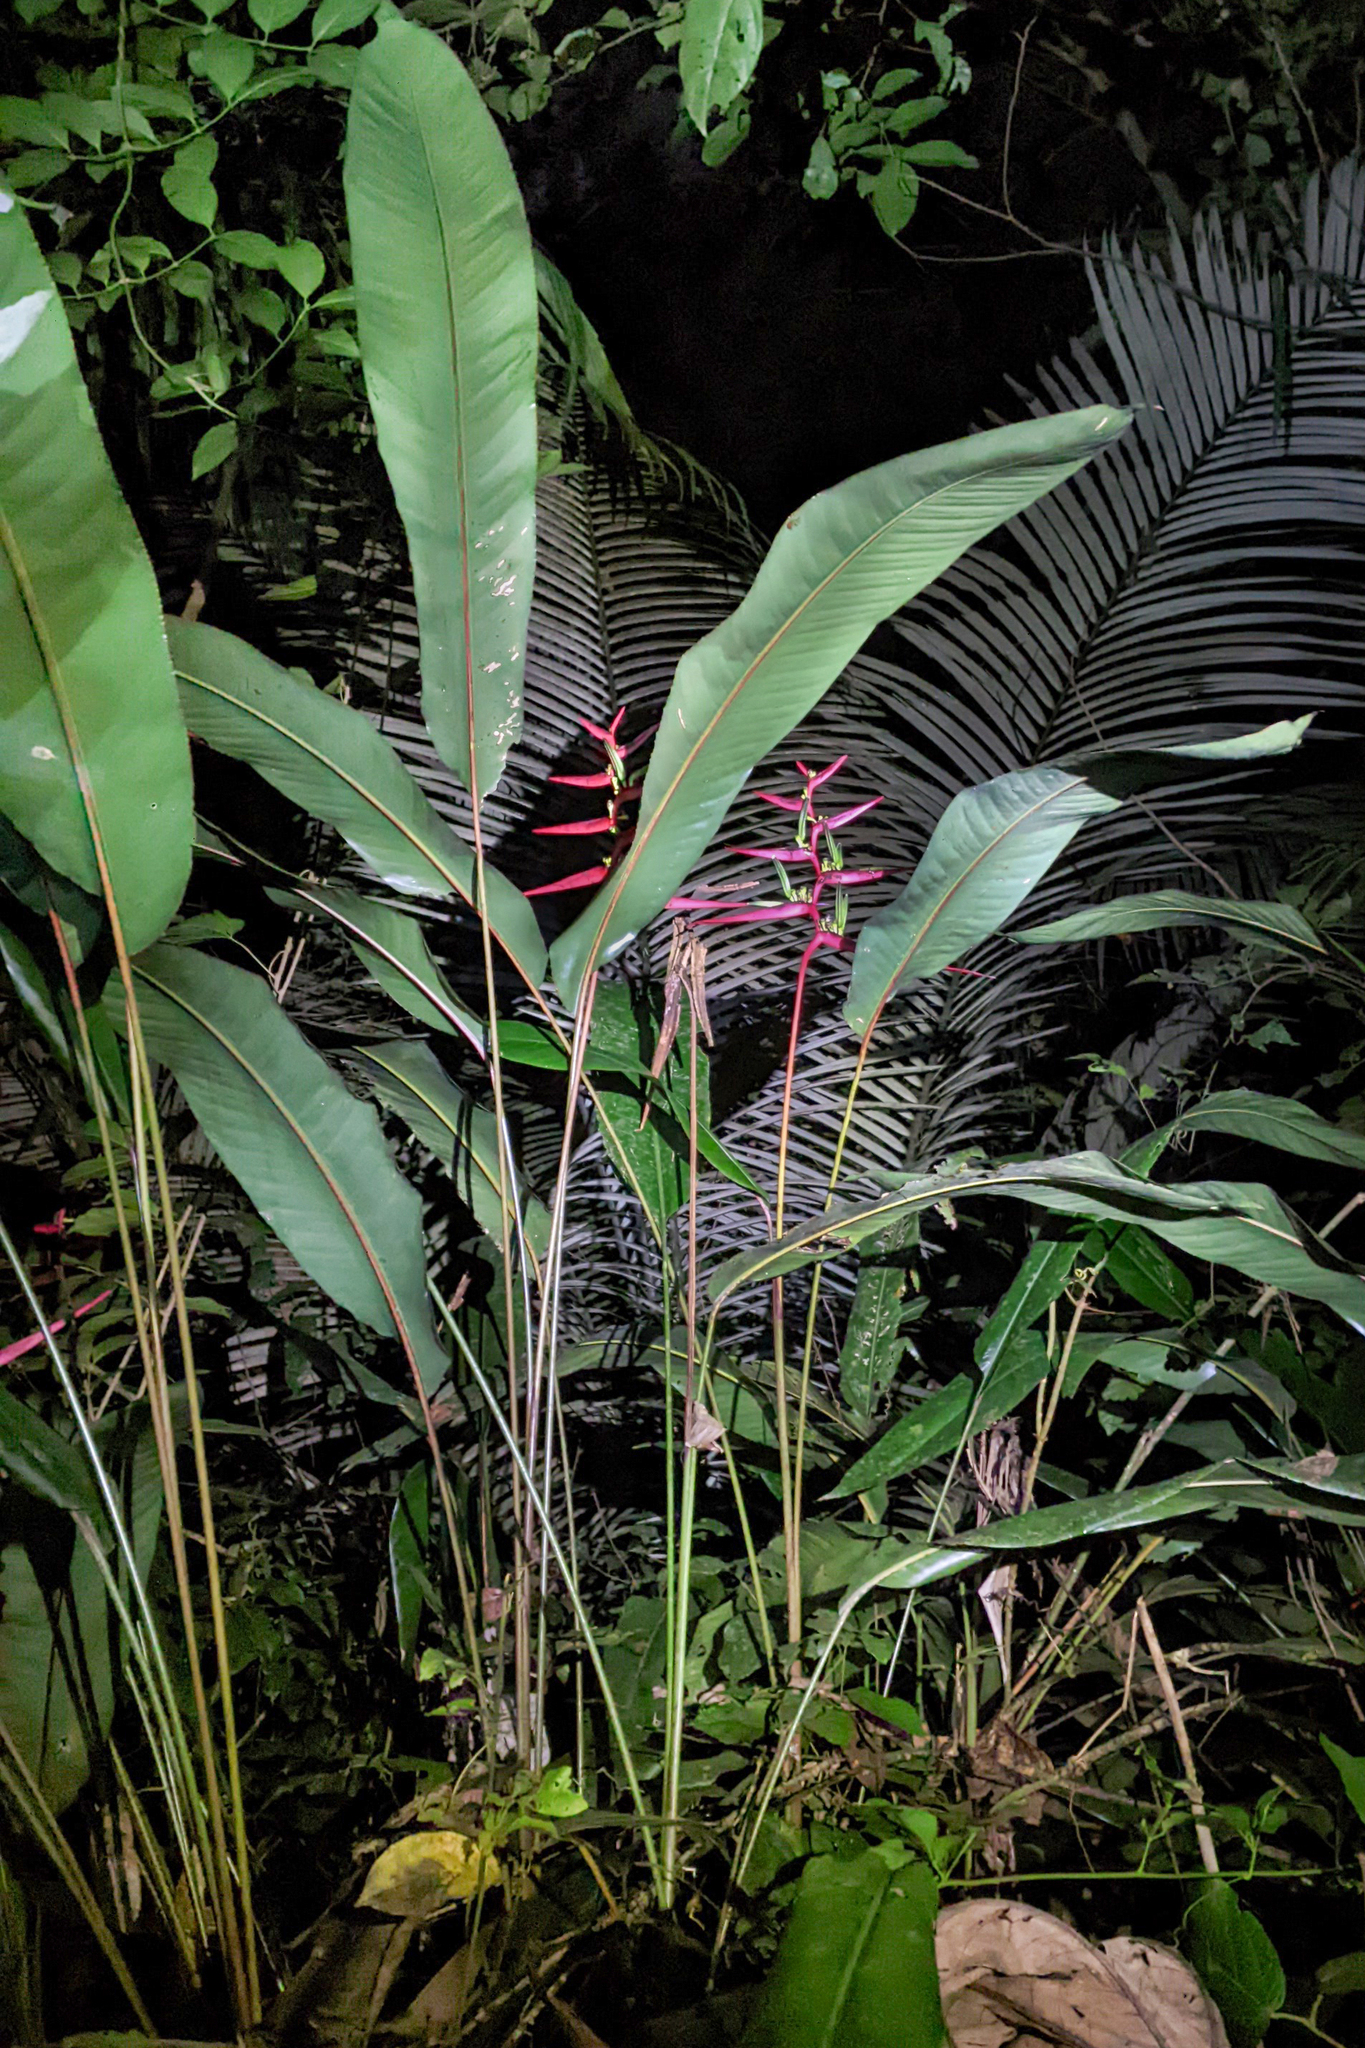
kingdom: Plantae
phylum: Tracheophyta
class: Liliopsida
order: Zingiberales
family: Heliconiaceae
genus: Heliconia
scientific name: Heliconia acuminata
